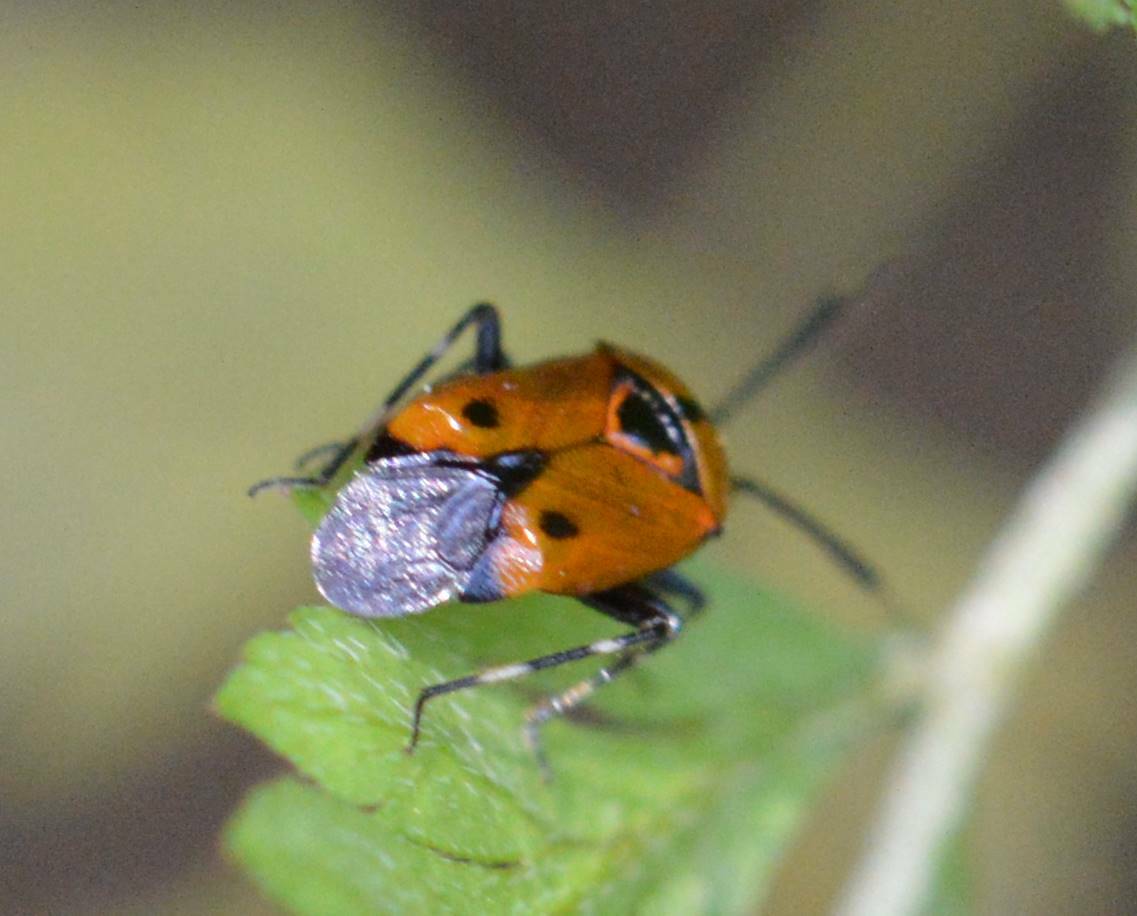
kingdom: Animalia
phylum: Arthropoda
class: Insecta
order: Hemiptera
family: Miridae
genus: Deraeocoris
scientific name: Deraeocoris punctum
